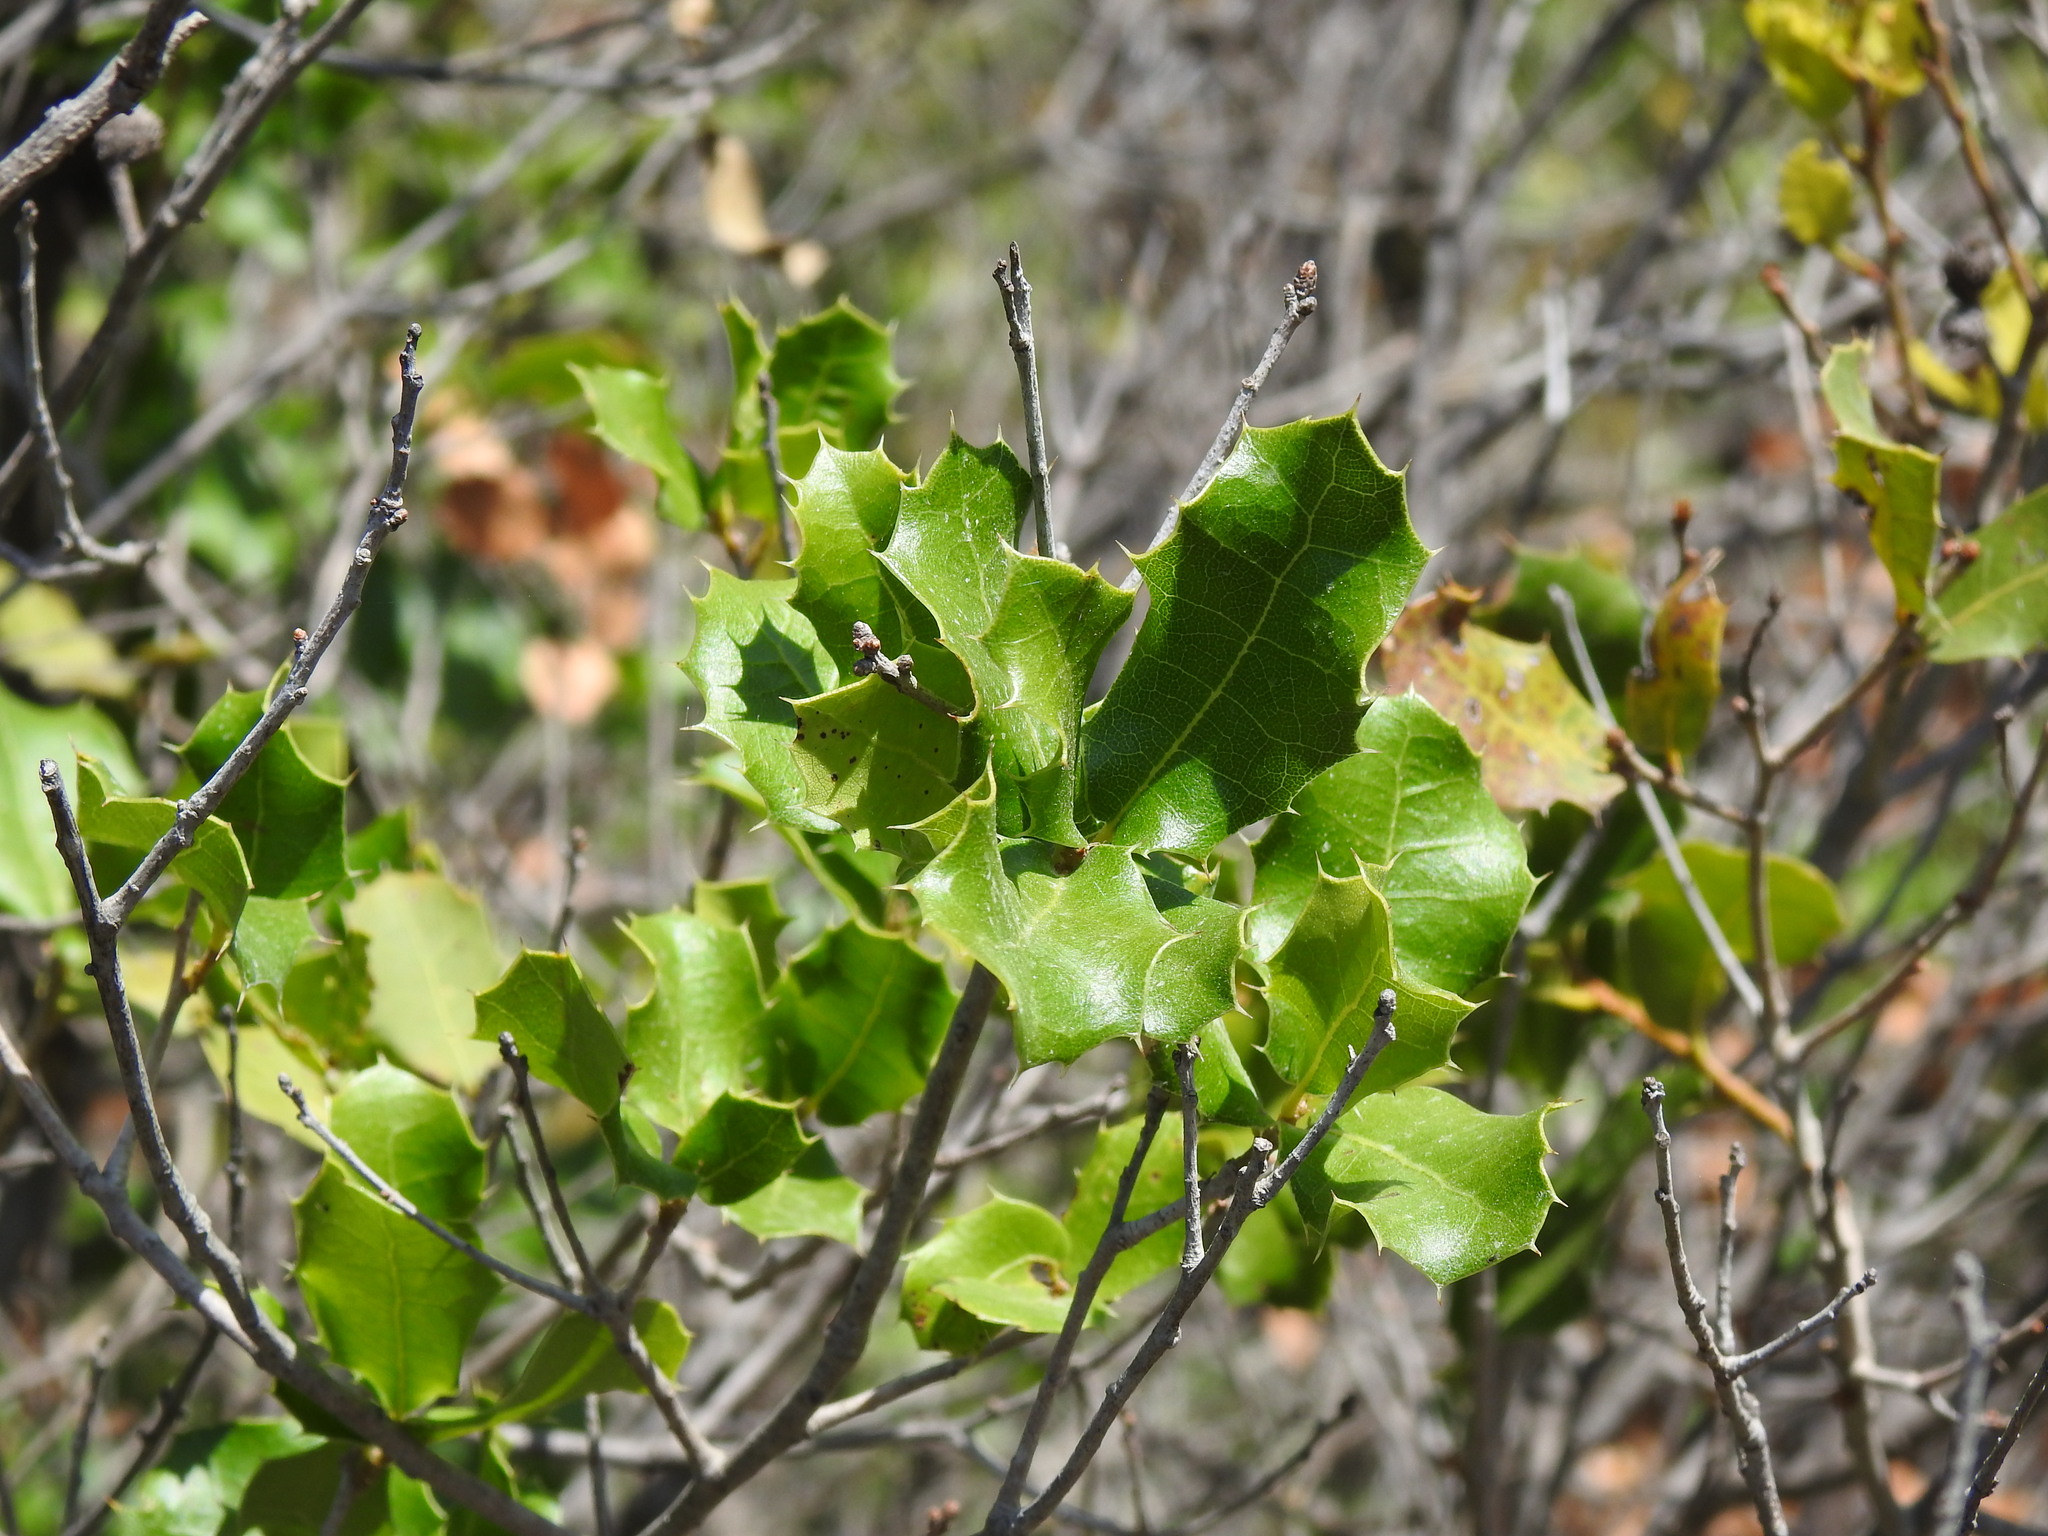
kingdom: Plantae
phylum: Tracheophyta
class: Magnoliopsida
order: Fagales
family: Fagaceae
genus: Quercus
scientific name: Quercus coccifera
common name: Kermes oak
